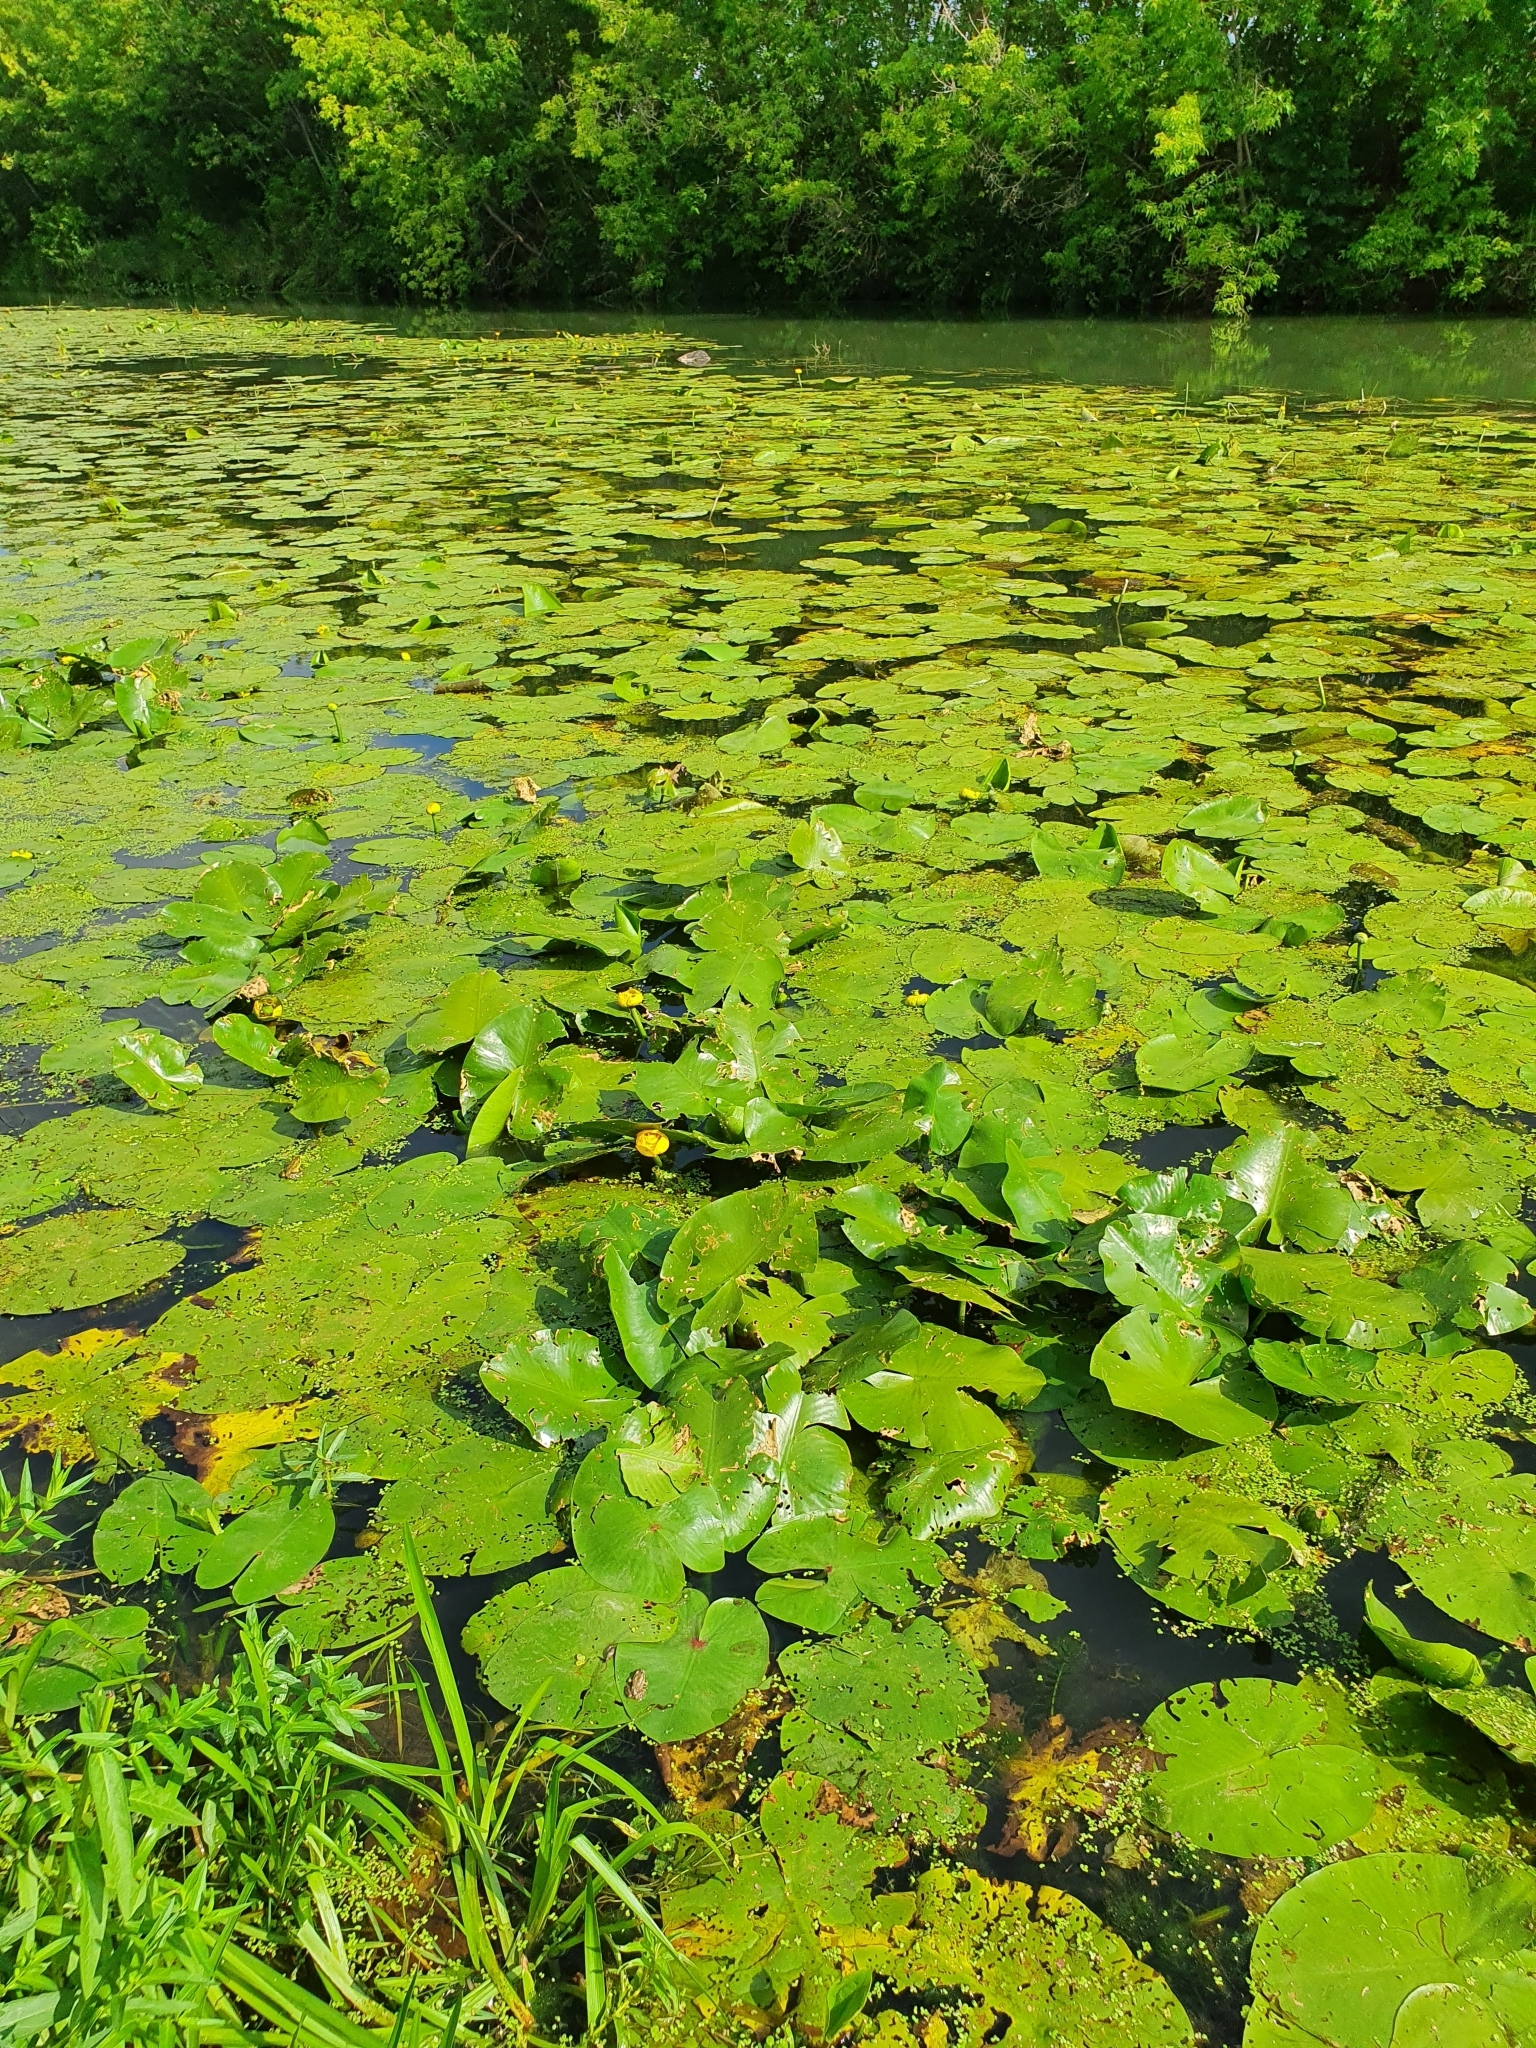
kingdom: Plantae
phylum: Tracheophyta
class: Magnoliopsida
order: Nymphaeales
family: Nymphaeaceae
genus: Nuphar
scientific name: Nuphar lutea
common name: Yellow water-lily
